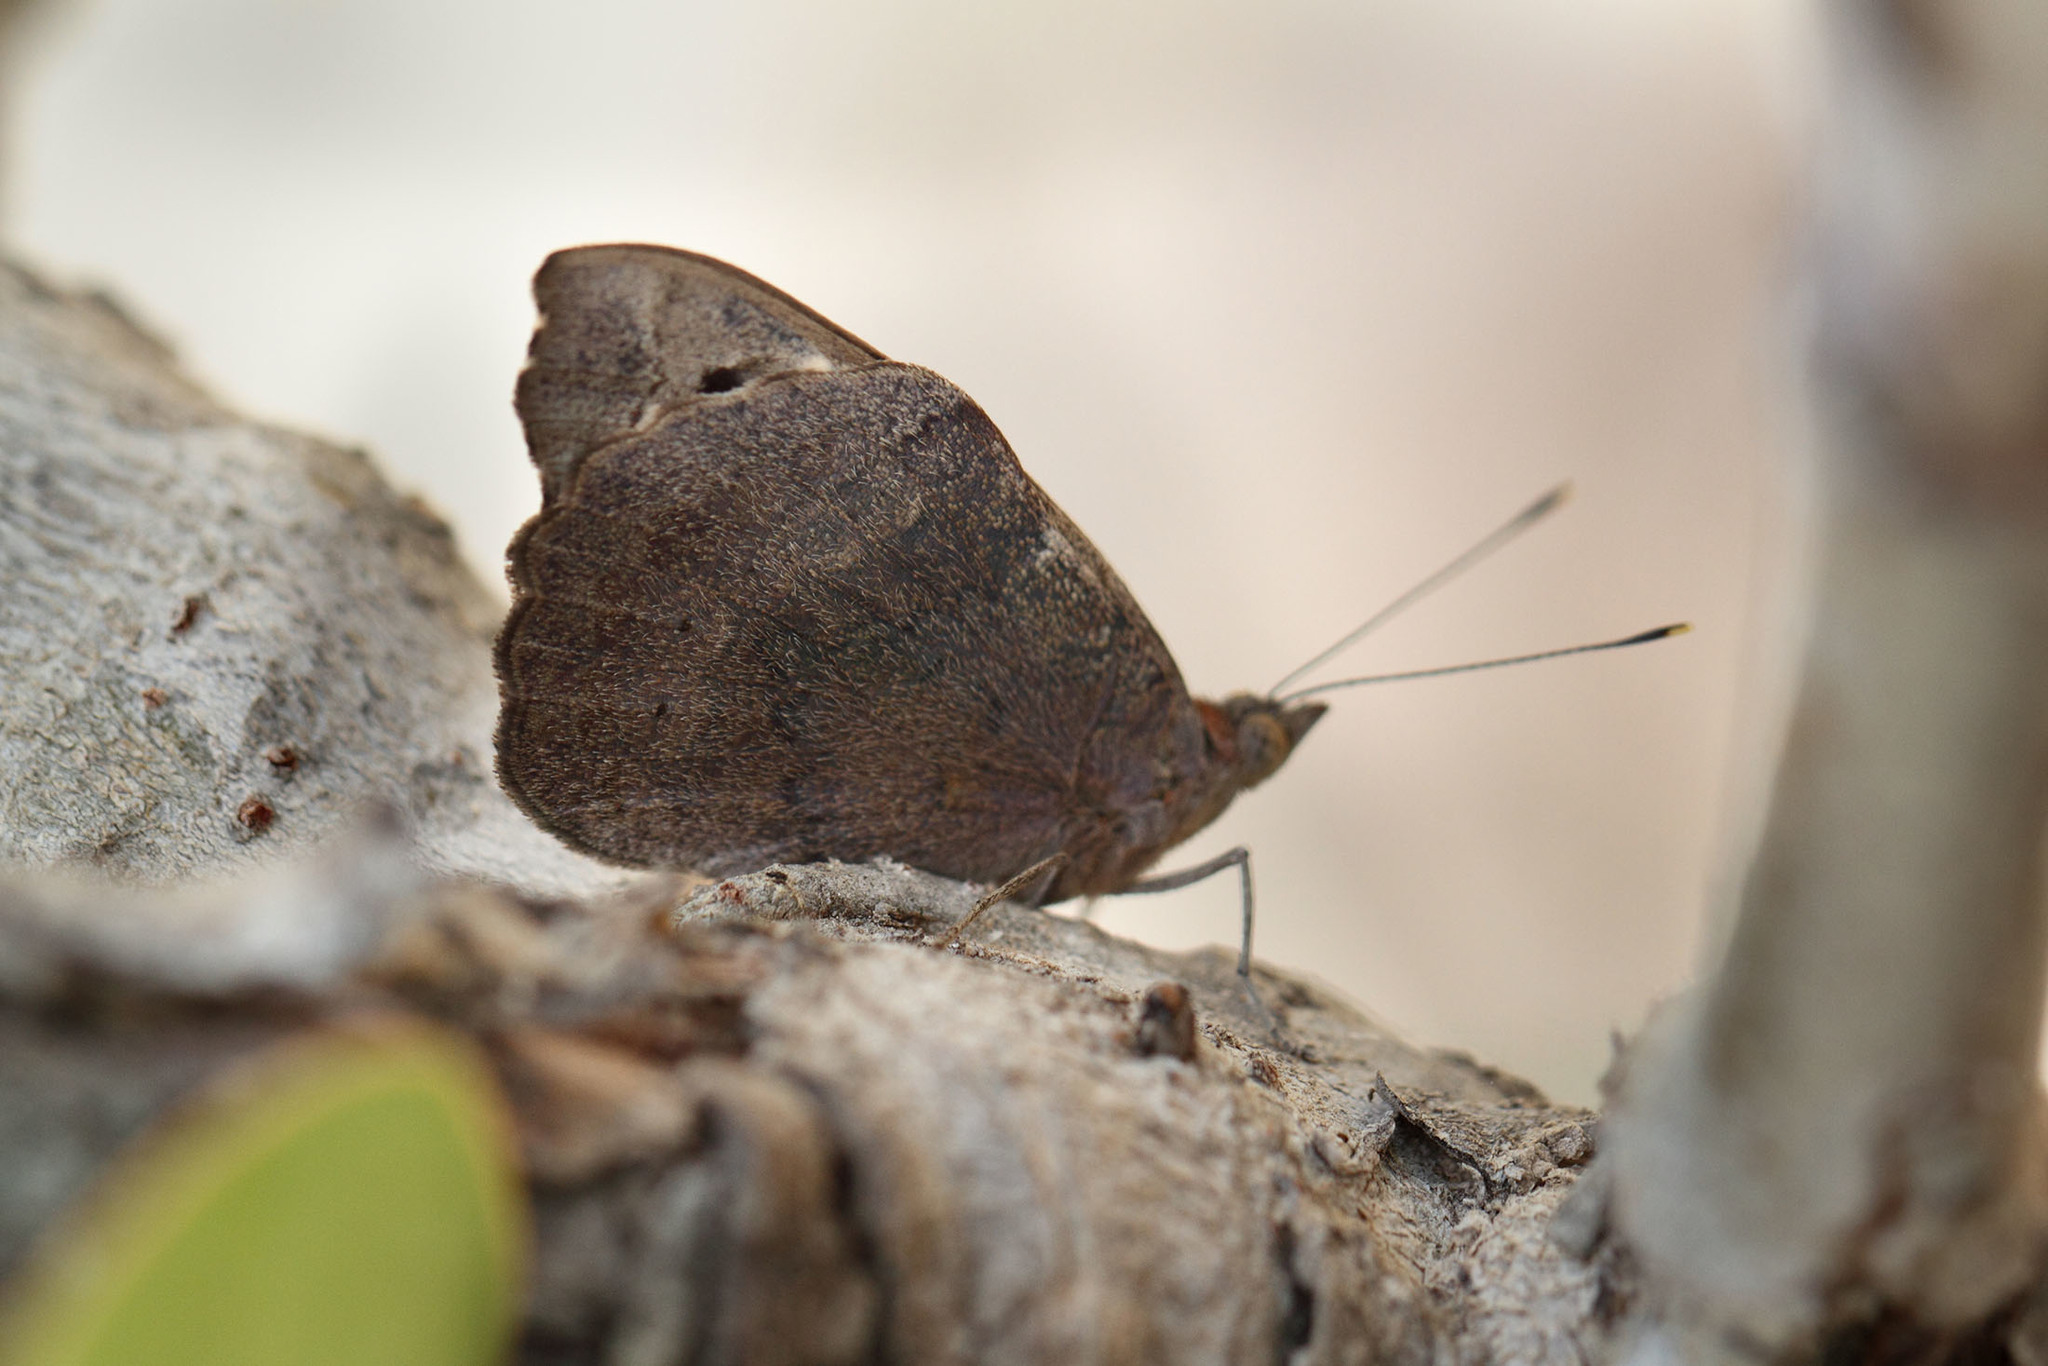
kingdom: Animalia
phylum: Arthropoda
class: Insecta
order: Lepidoptera
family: Nymphalidae
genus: Eunica
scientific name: Eunica tatila
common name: Florida purplewing
